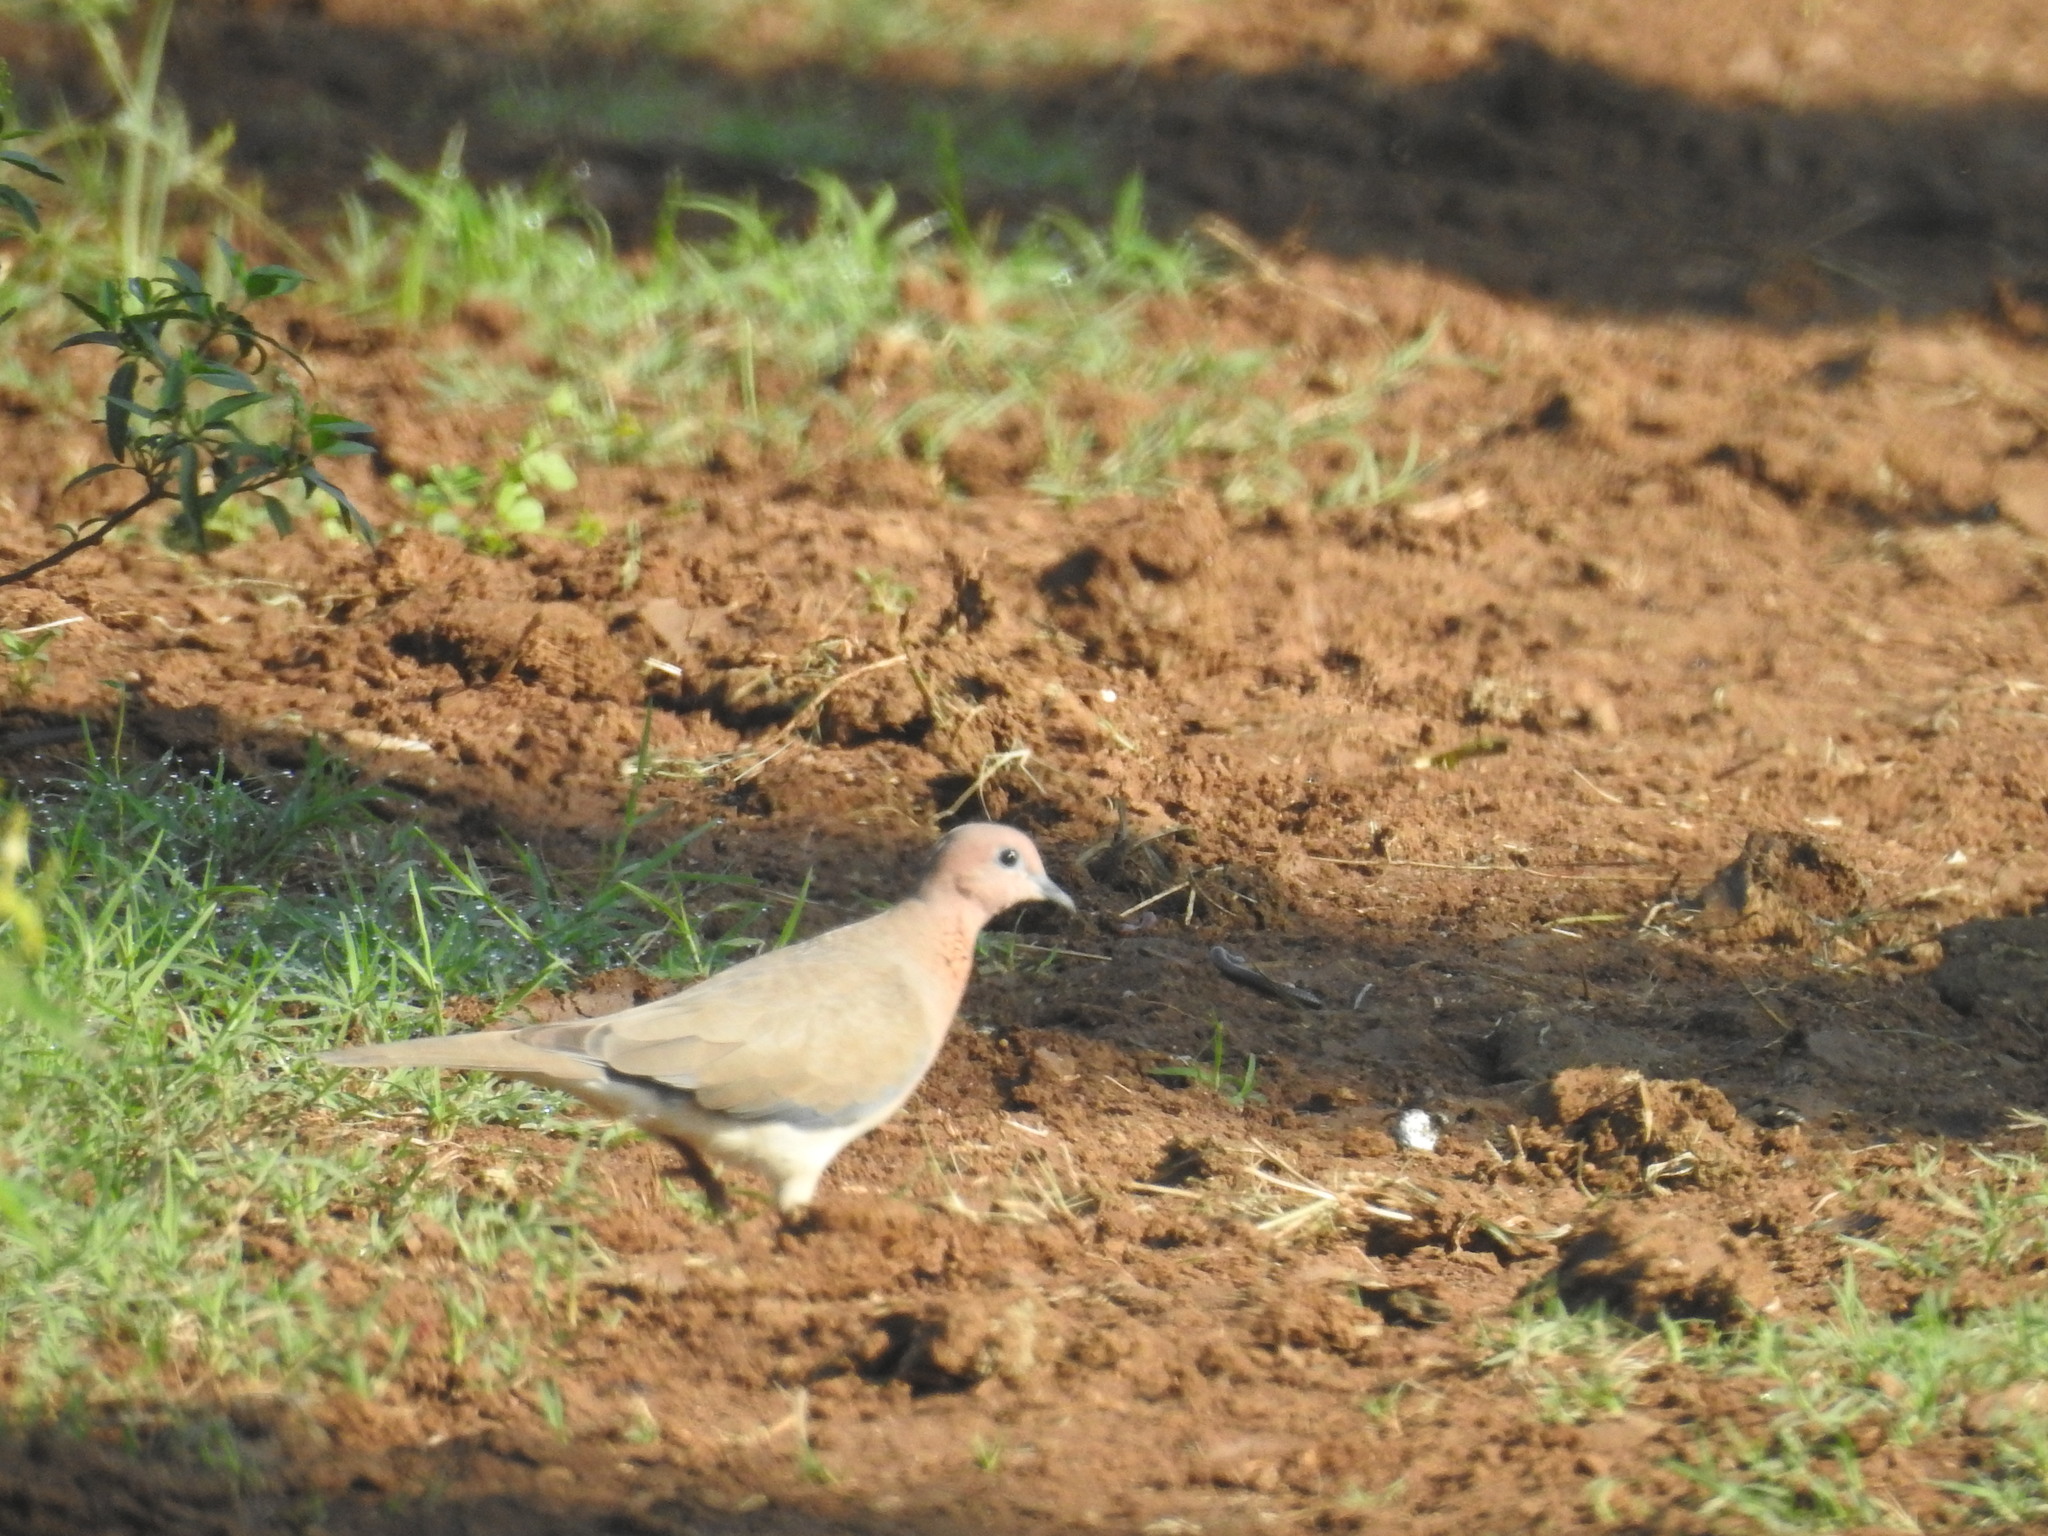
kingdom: Animalia
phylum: Chordata
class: Aves
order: Columbiformes
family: Columbidae
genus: Spilopelia
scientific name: Spilopelia senegalensis
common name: Laughing dove
